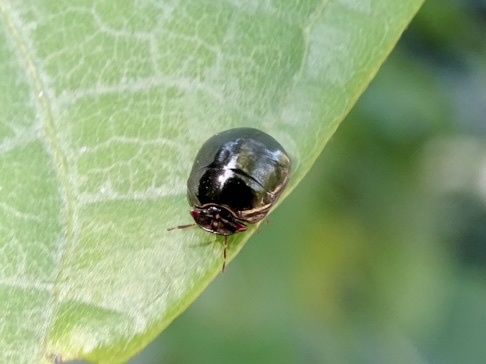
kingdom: Animalia
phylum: Arthropoda
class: Insecta
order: Hemiptera
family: Plataspidae
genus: Brachyplatys
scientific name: Brachyplatys subaeneus
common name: Black bean bug
